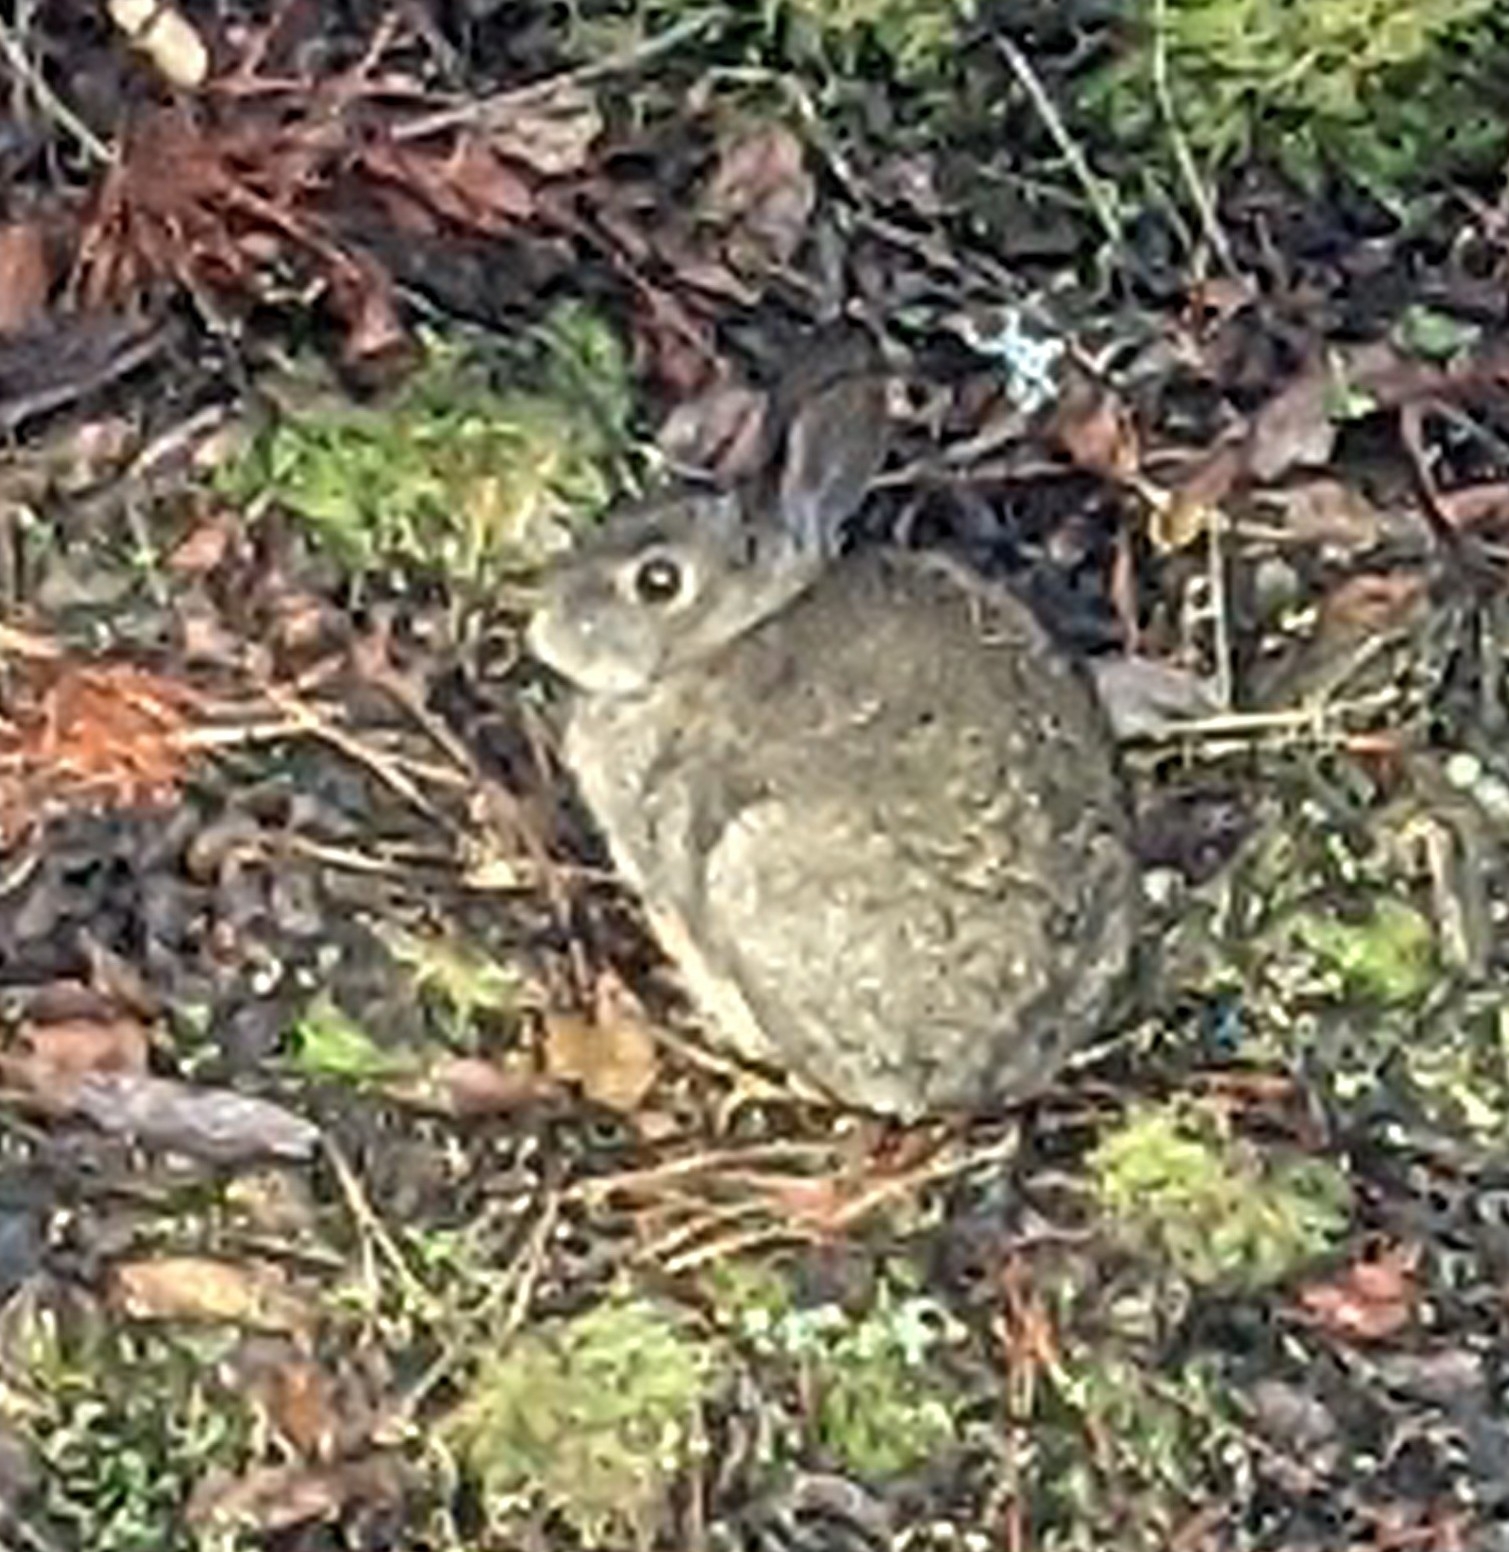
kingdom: Animalia
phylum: Chordata
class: Mammalia
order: Lagomorpha
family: Leporidae
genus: Sylvilagus
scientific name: Sylvilagus bachmani
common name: Brush rabbit
